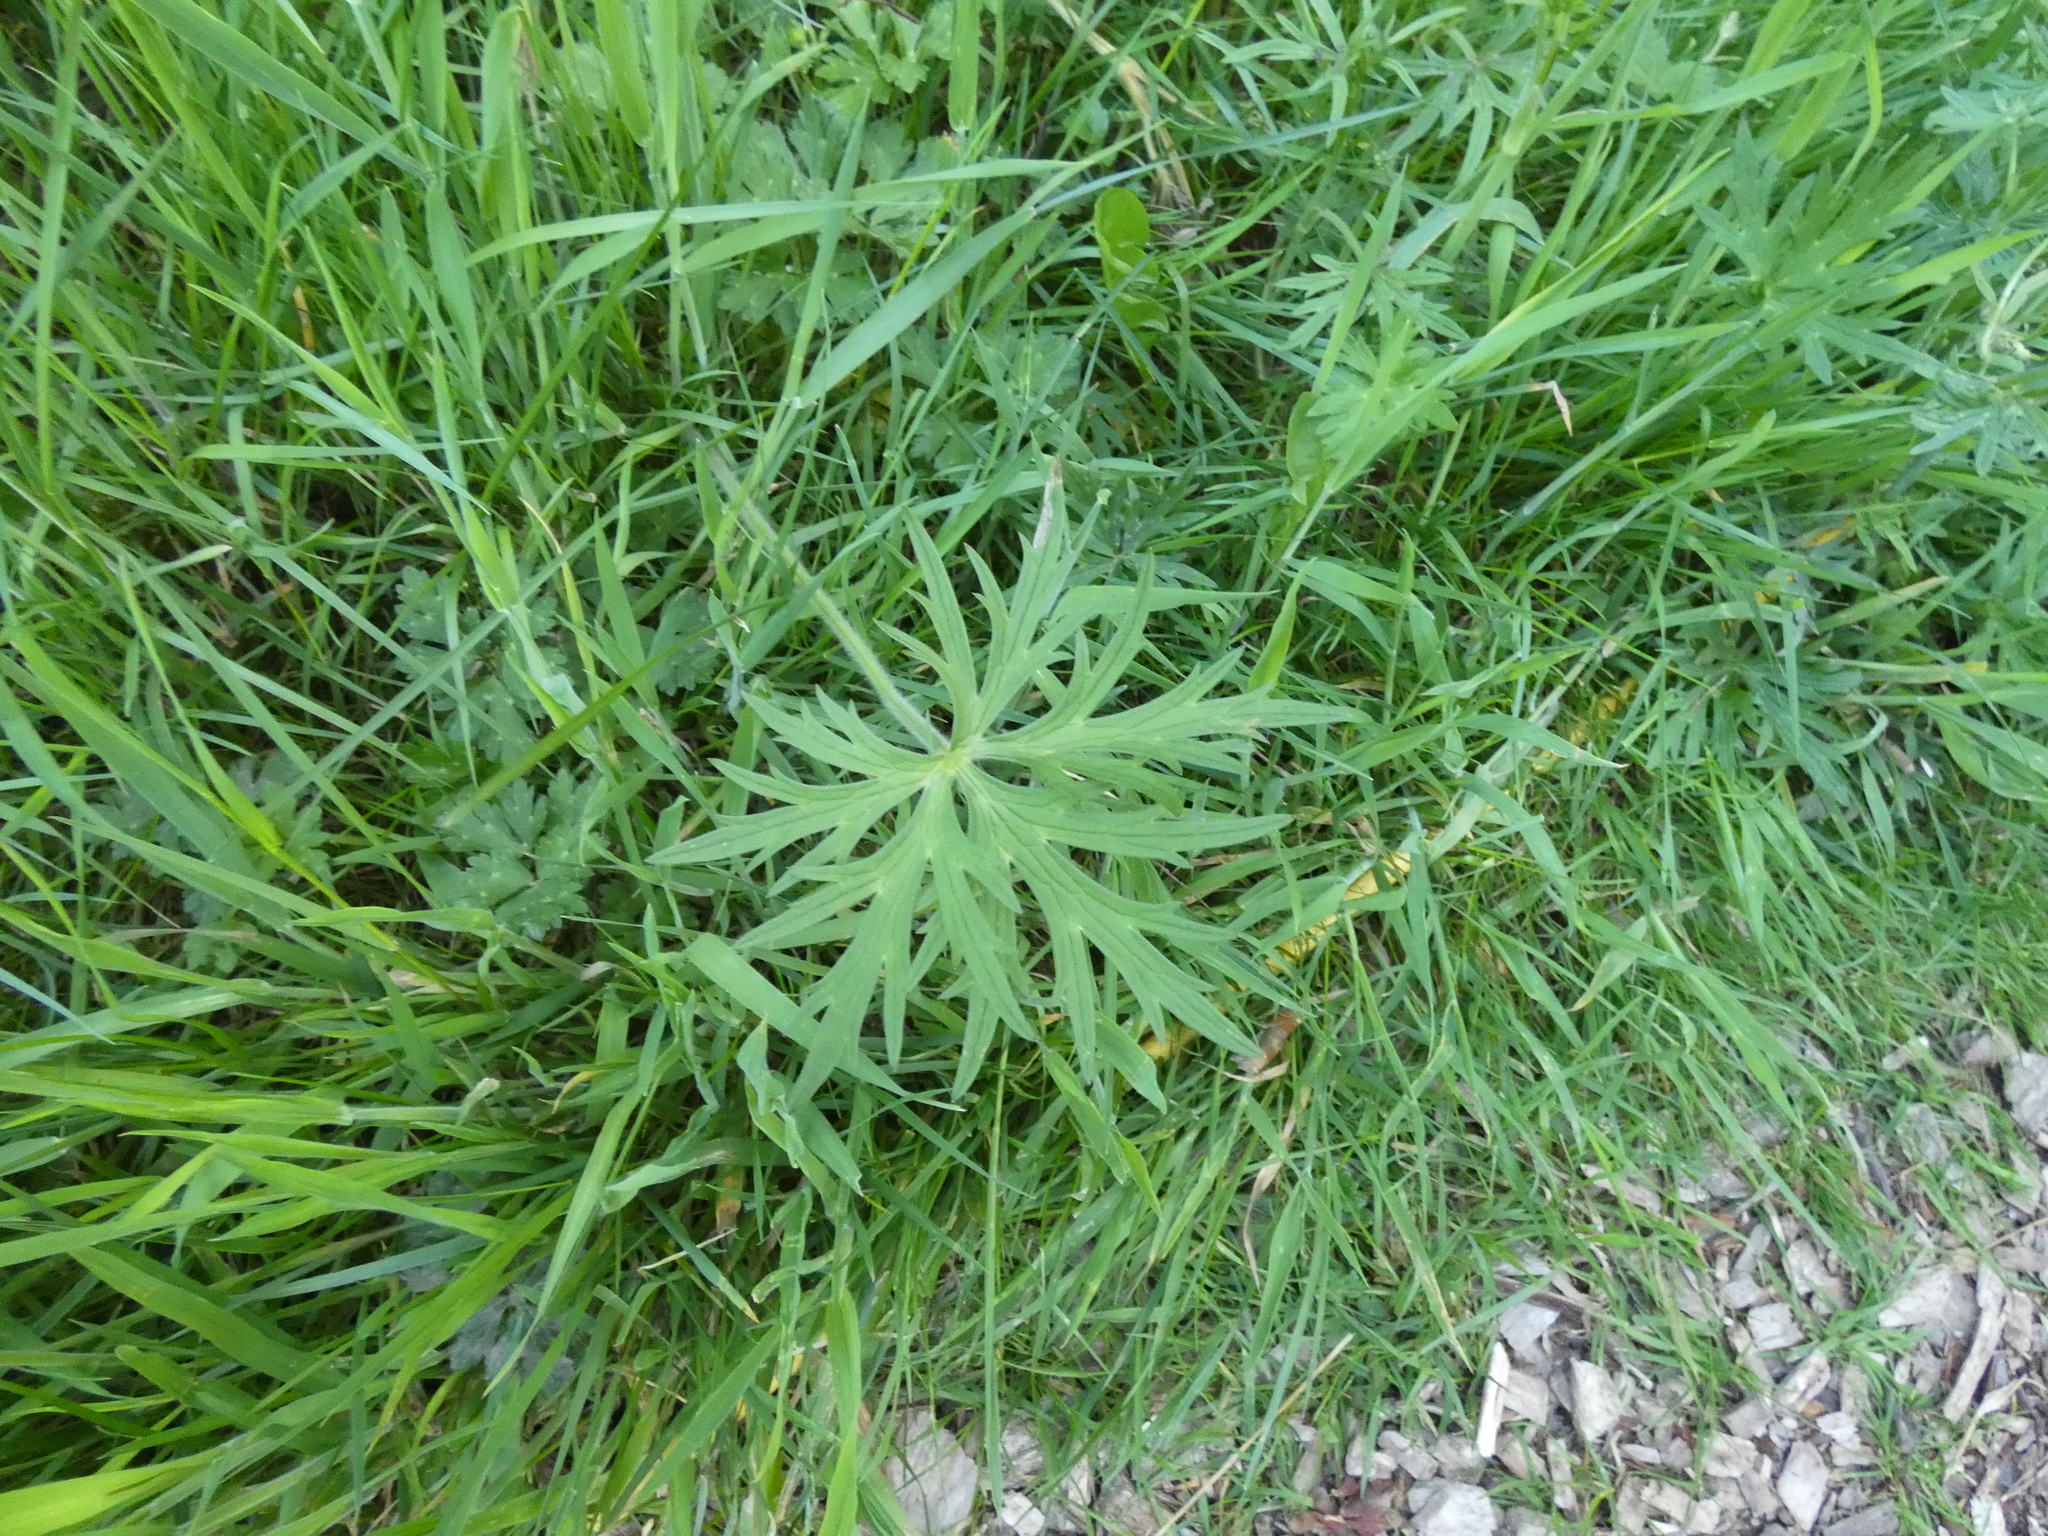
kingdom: Plantae
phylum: Tracheophyta
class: Magnoliopsida
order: Ranunculales
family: Ranunculaceae
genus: Ranunculus
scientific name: Ranunculus acris
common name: Meadow buttercup
